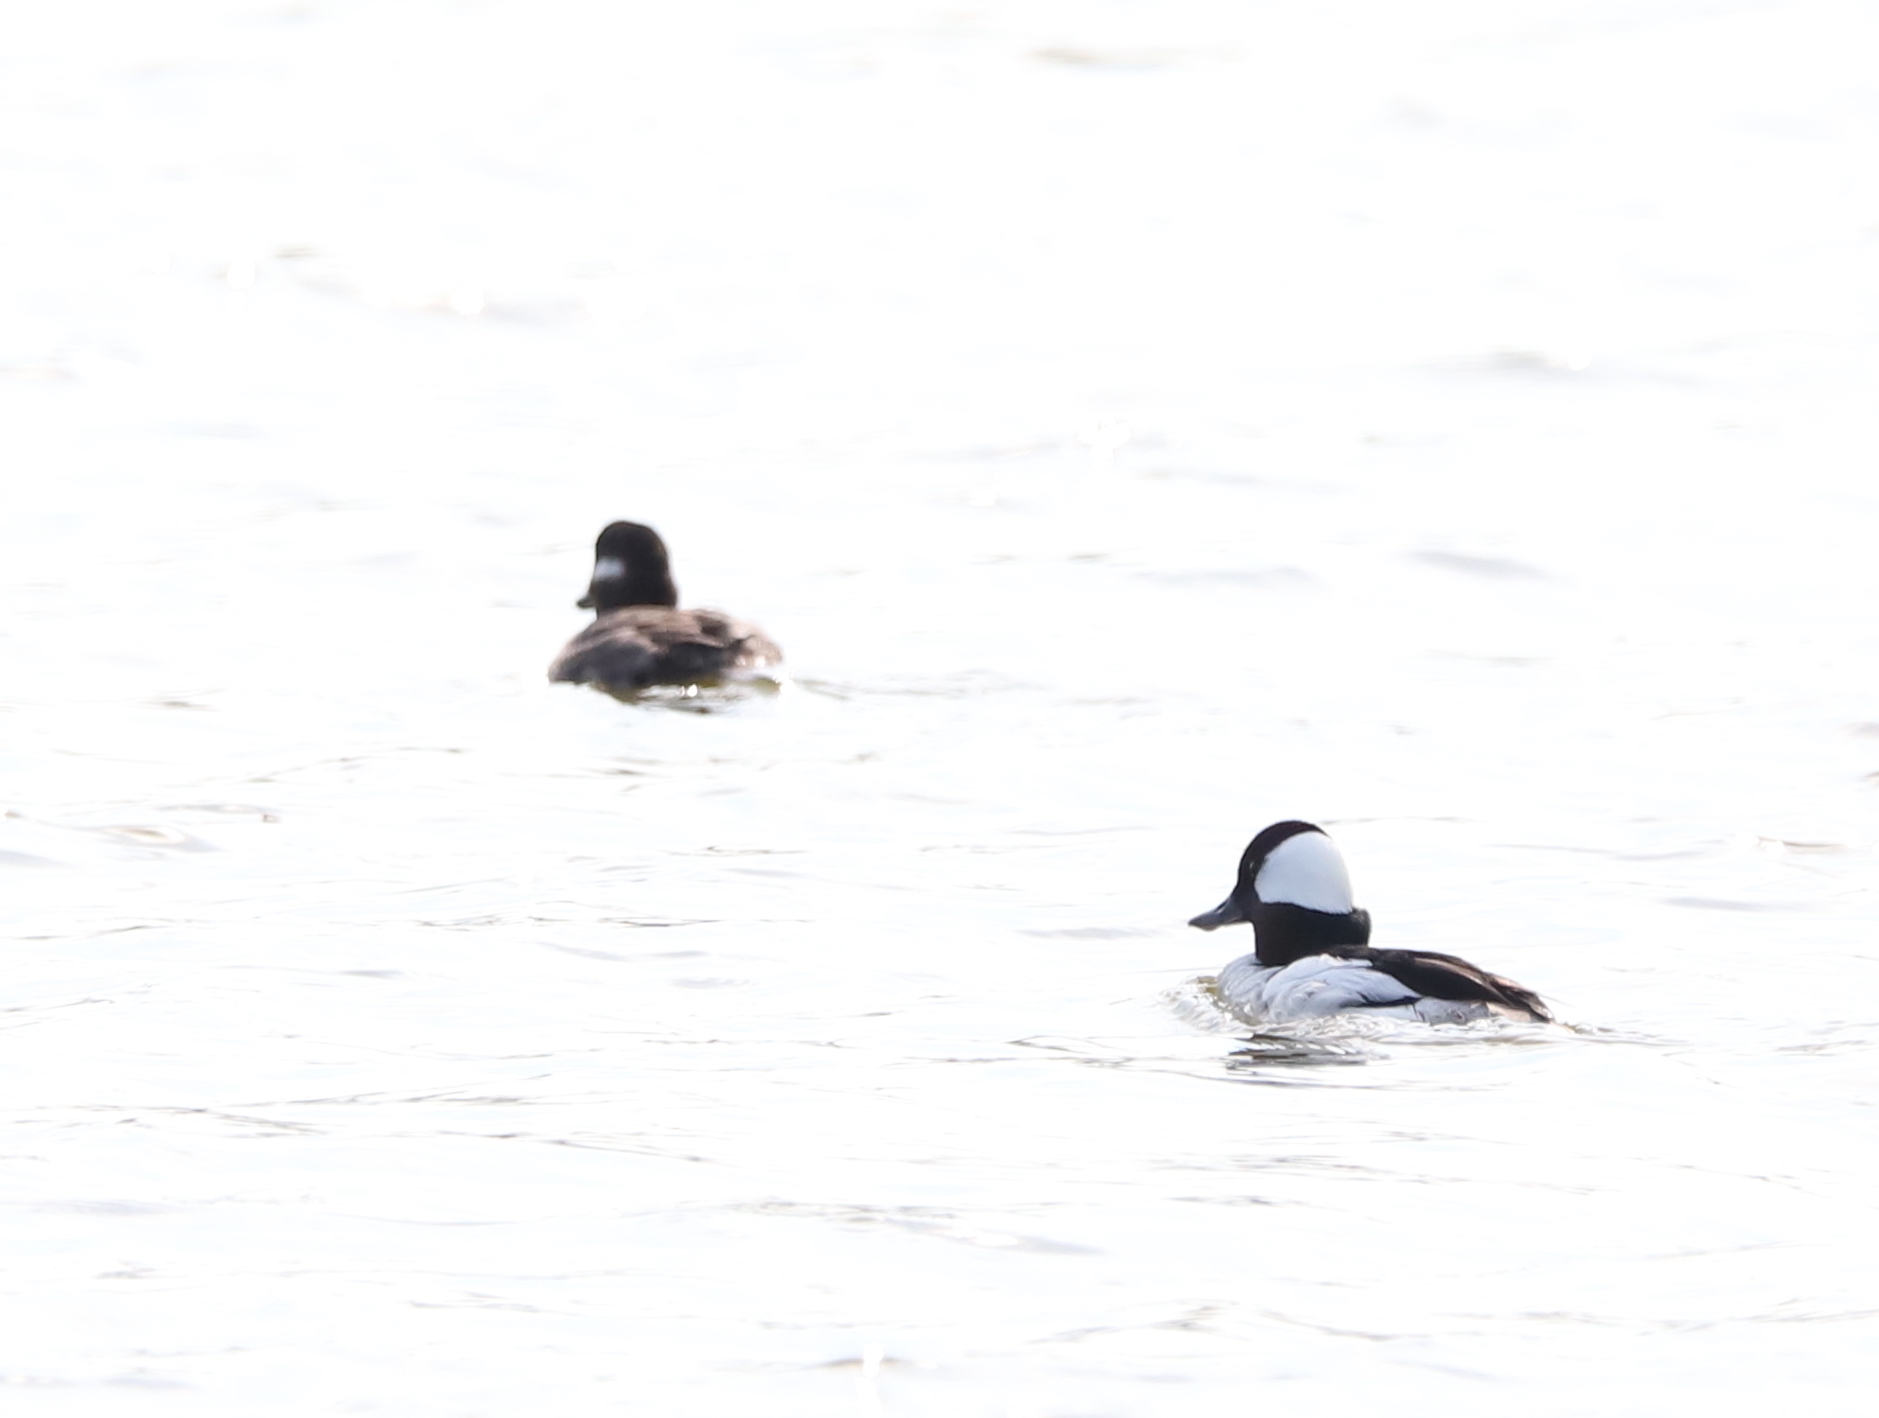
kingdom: Animalia
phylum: Chordata
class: Aves
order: Anseriformes
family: Anatidae
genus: Bucephala
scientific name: Bucephala albeola
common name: Bufflehead
